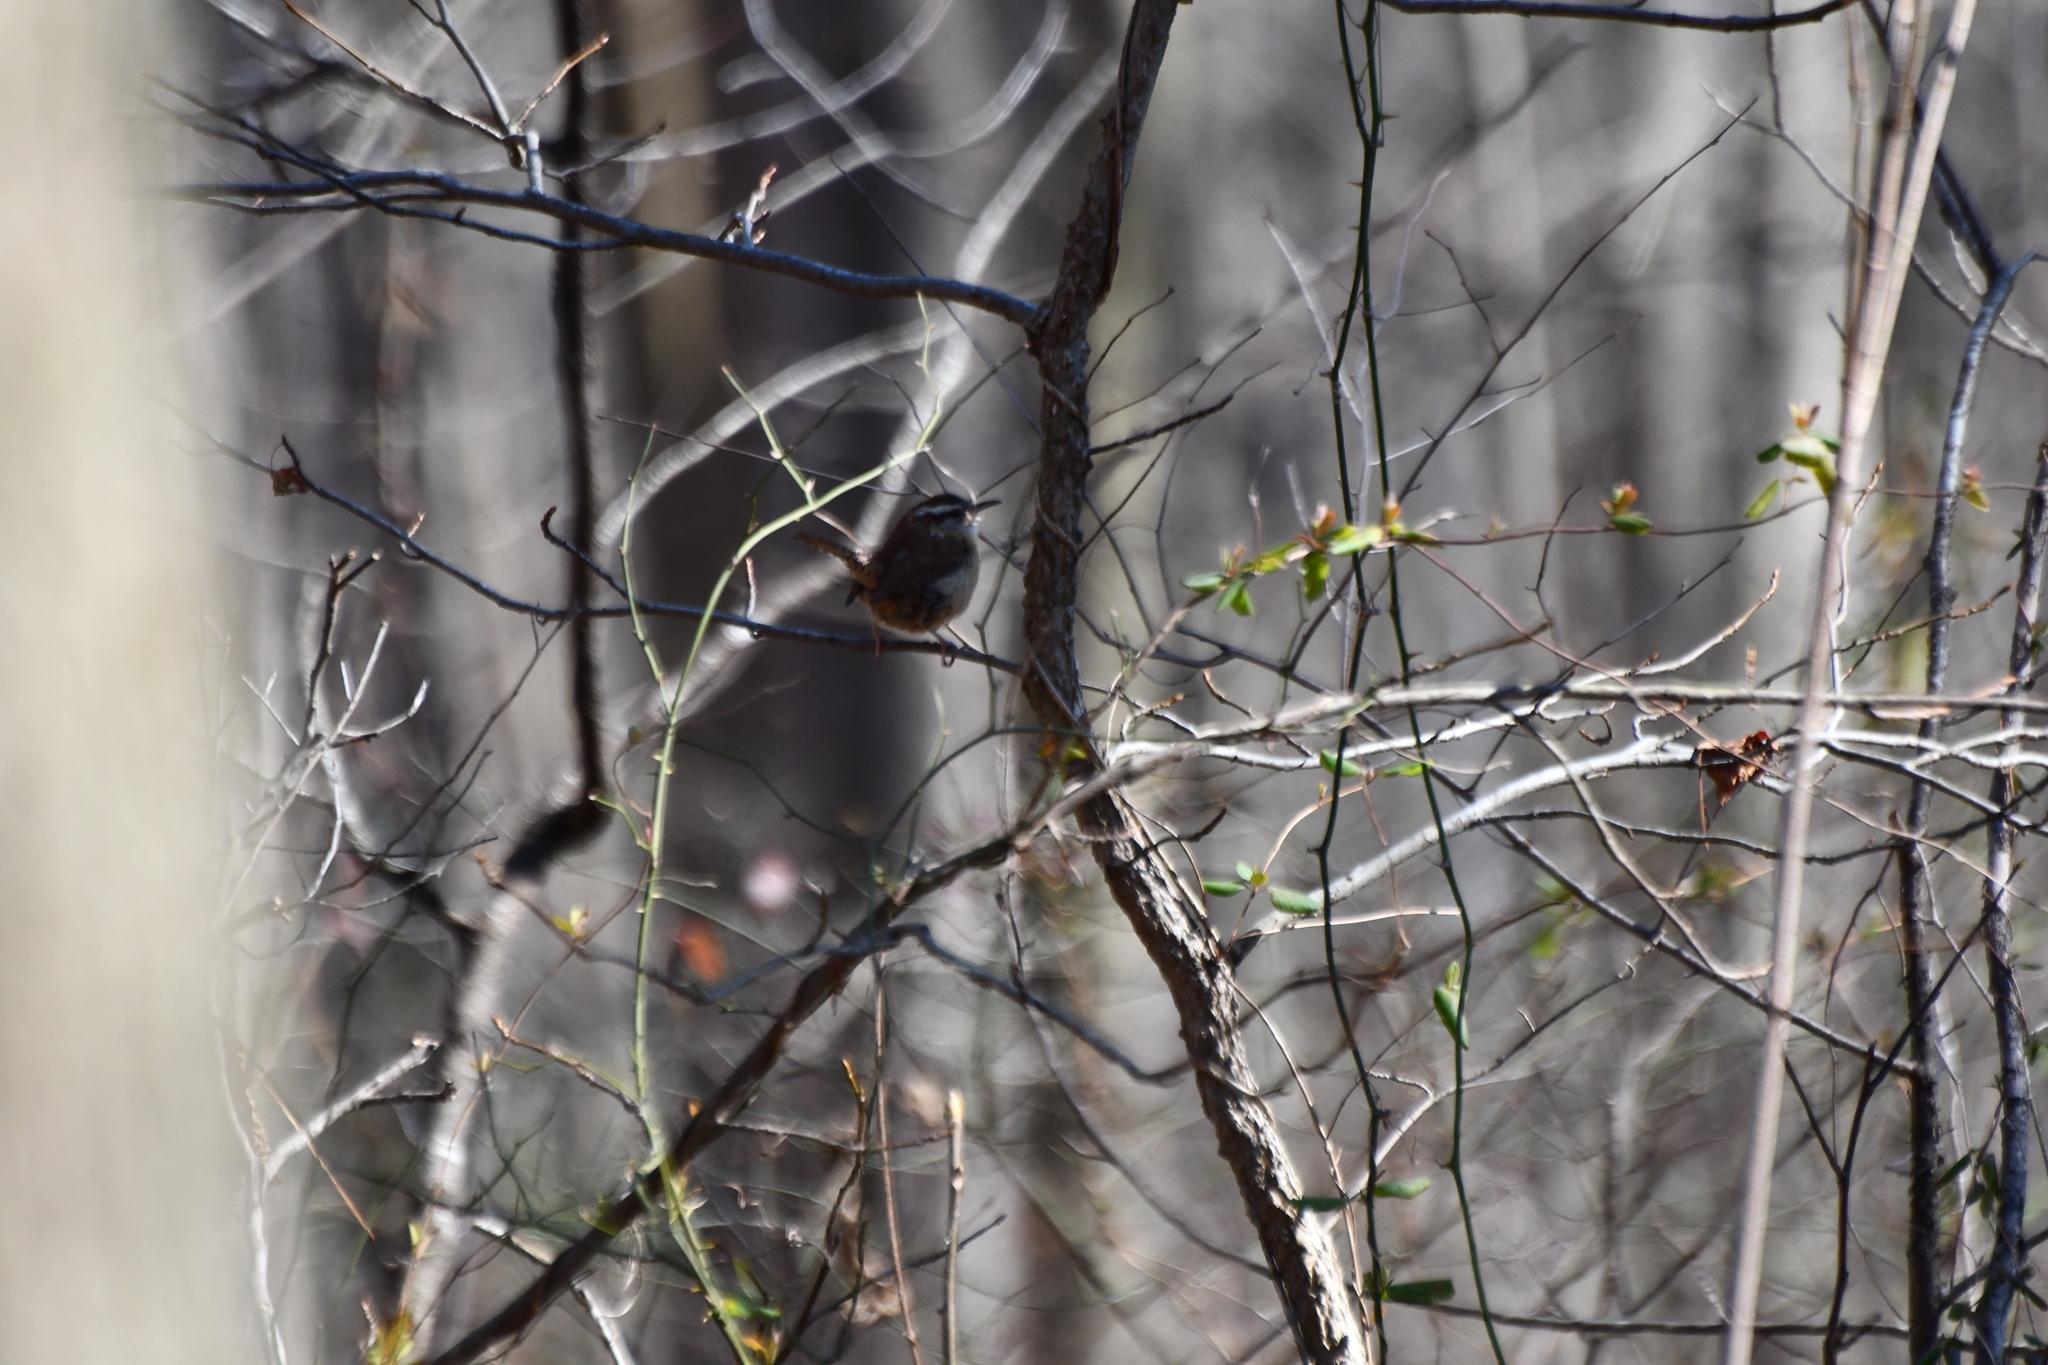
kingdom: Animalia
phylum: Chordata
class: Aves
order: Passeriformes
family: Troglodytidae
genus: Thryothorus
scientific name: Thryothorus ludovicianus
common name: Carolina wren
